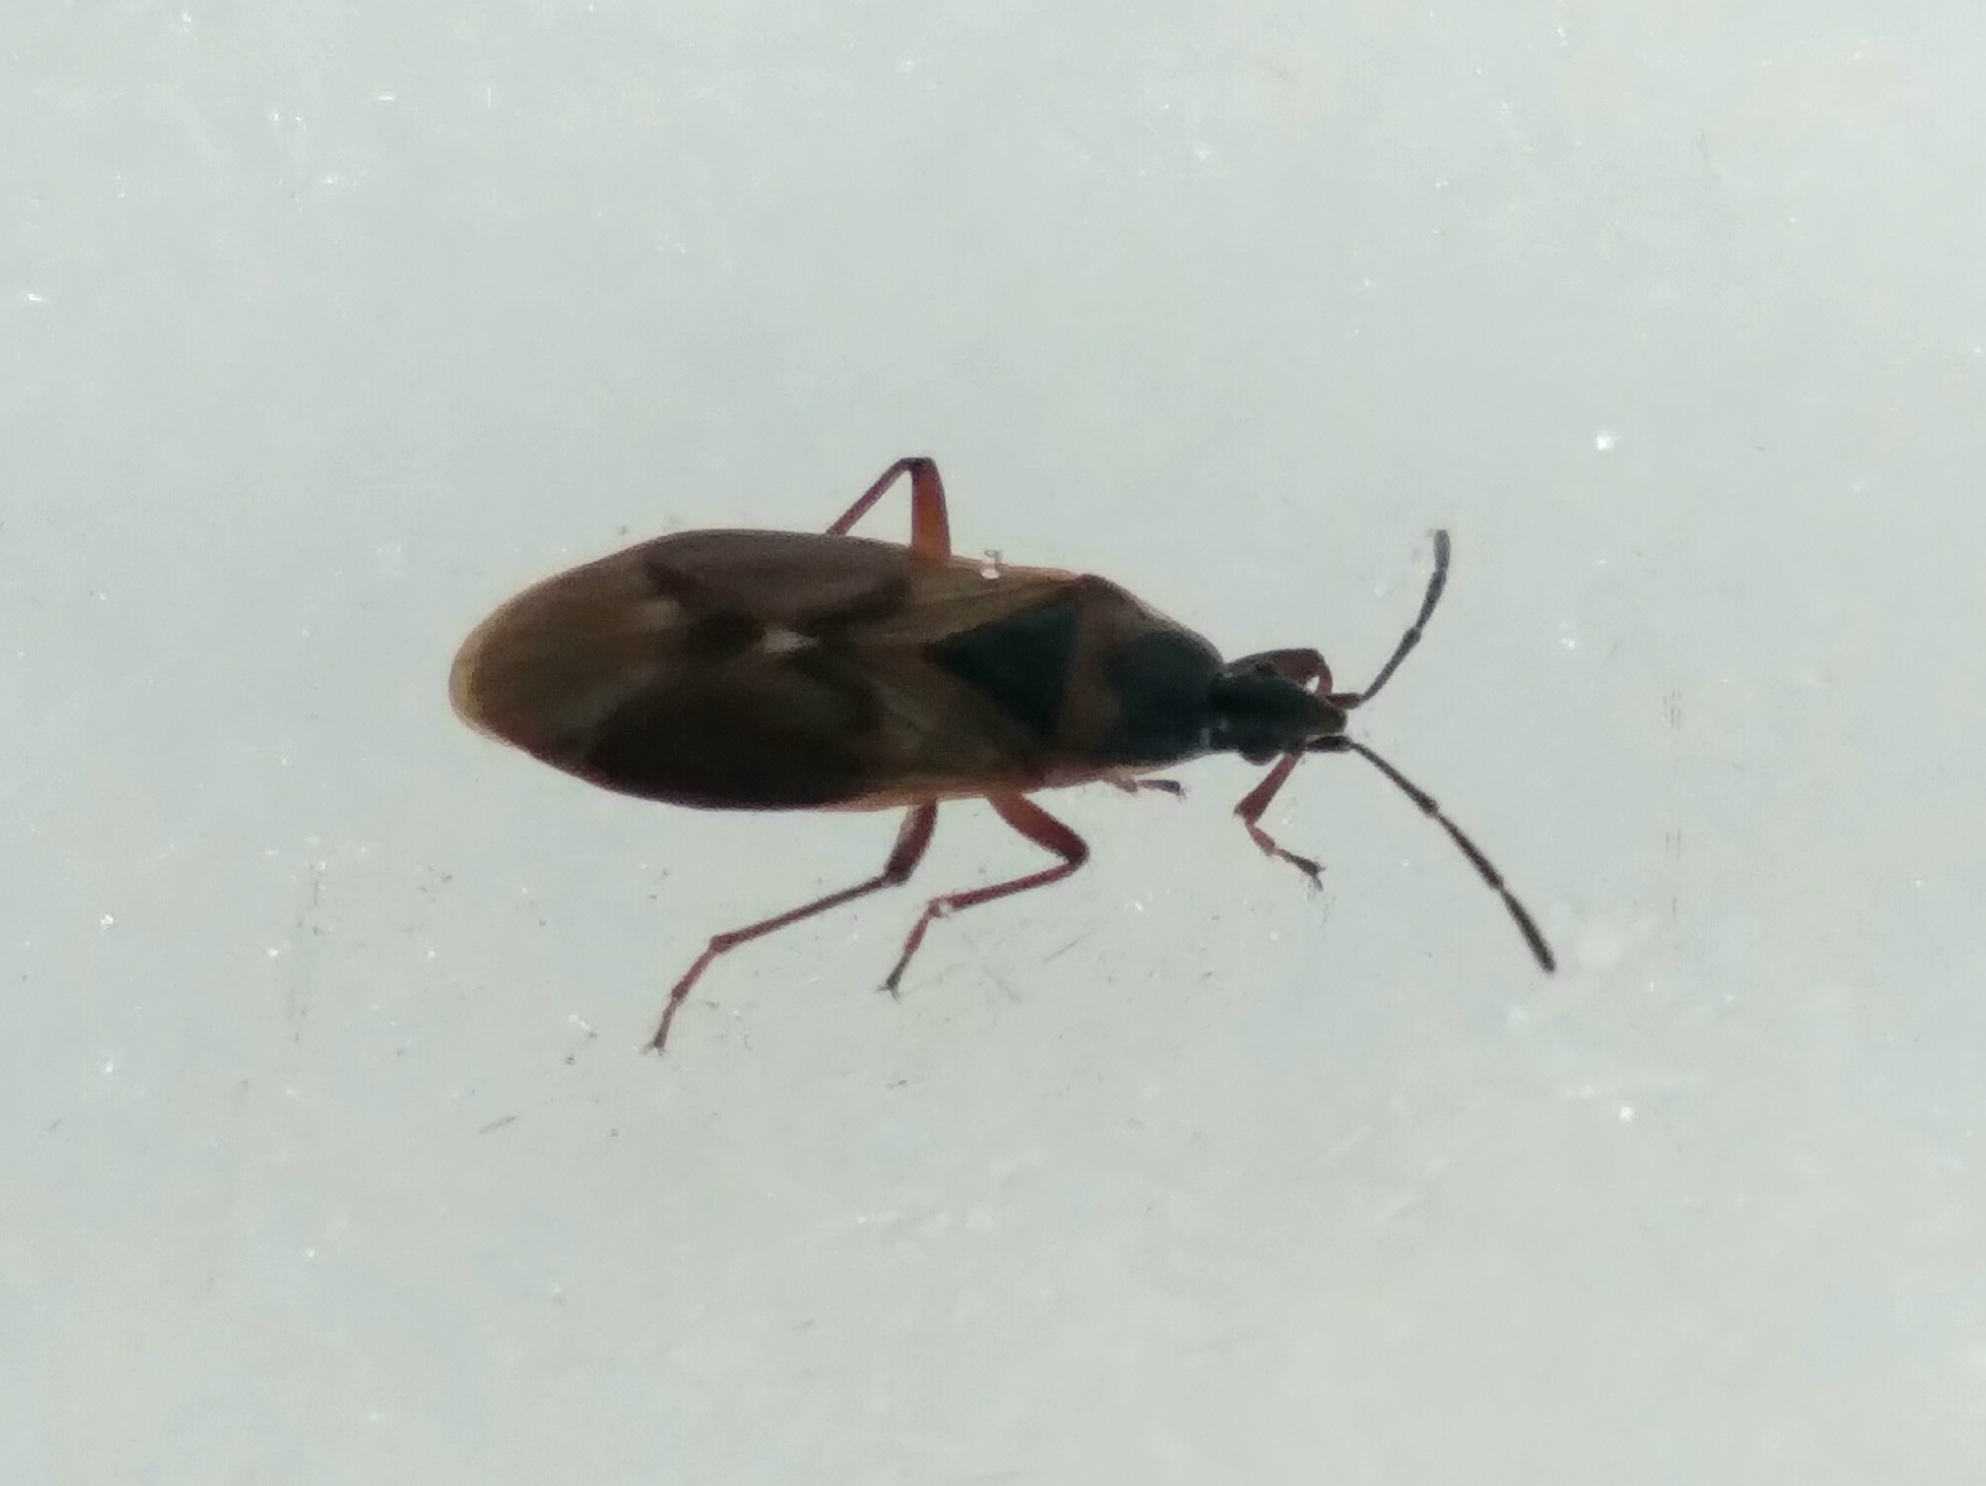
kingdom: Animalia
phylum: Arthropoda
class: Insecta
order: Hemiptera
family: Rhyparochromidae
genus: Gastrodes
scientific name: Gastrodes abietum
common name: Spruce cone bug
